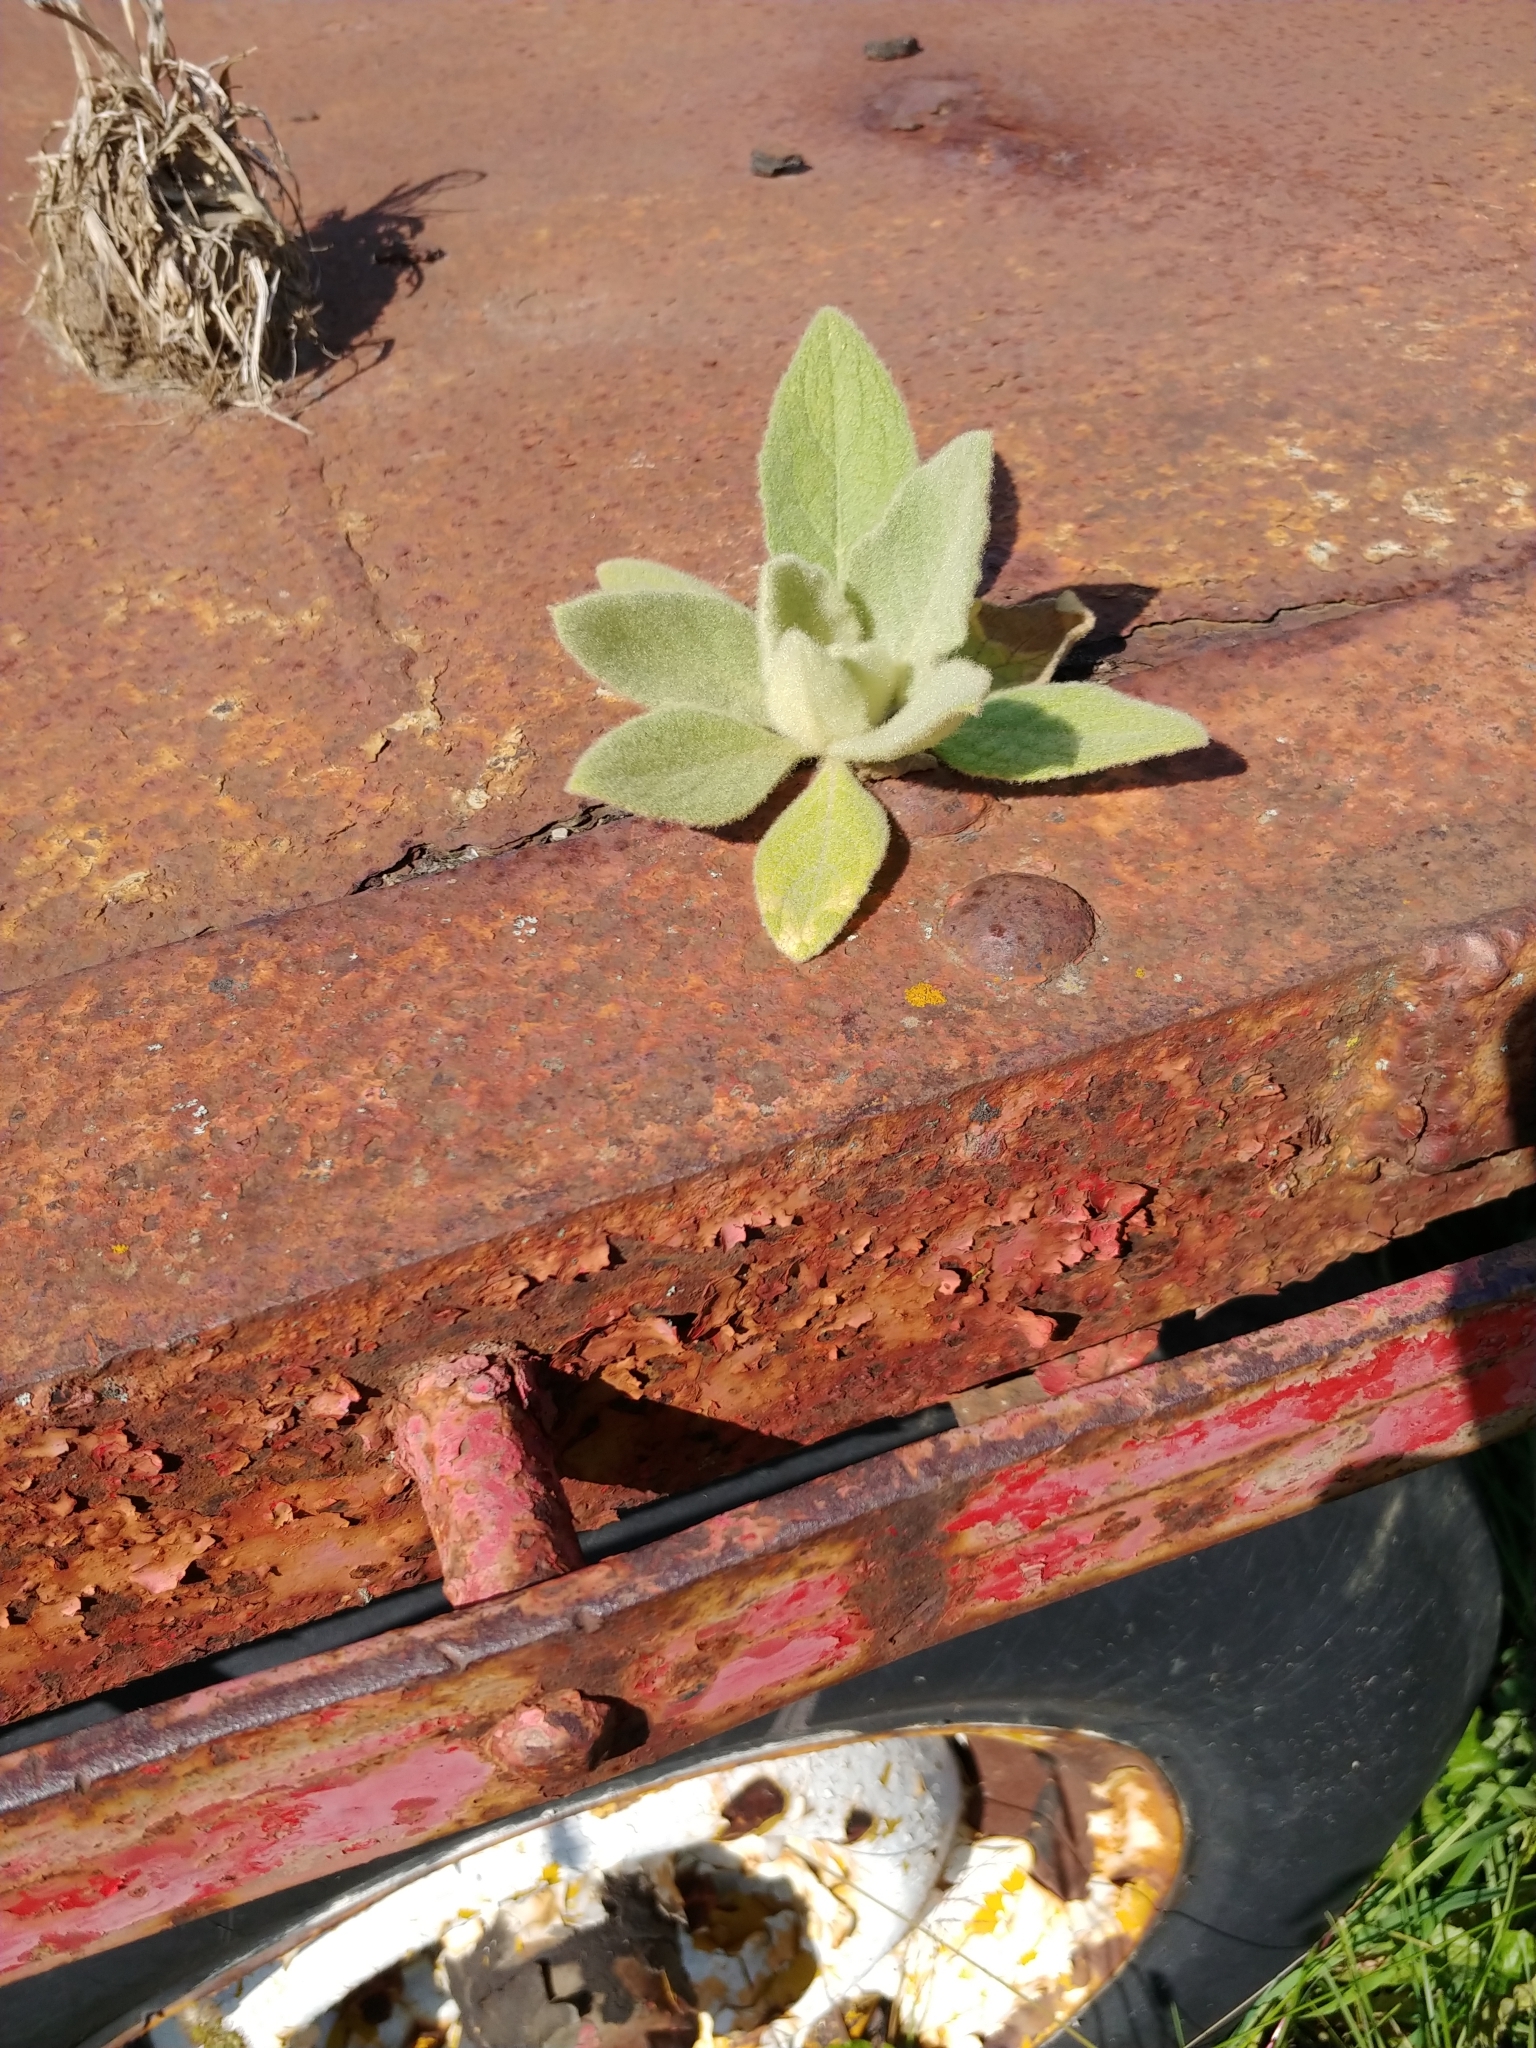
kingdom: Plantae
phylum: Tracheophyta
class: Magnoliopsida
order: Lamiales
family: Scrophulariaceae
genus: Verbascum
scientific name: Verbascum thapsus
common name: Common mullein
